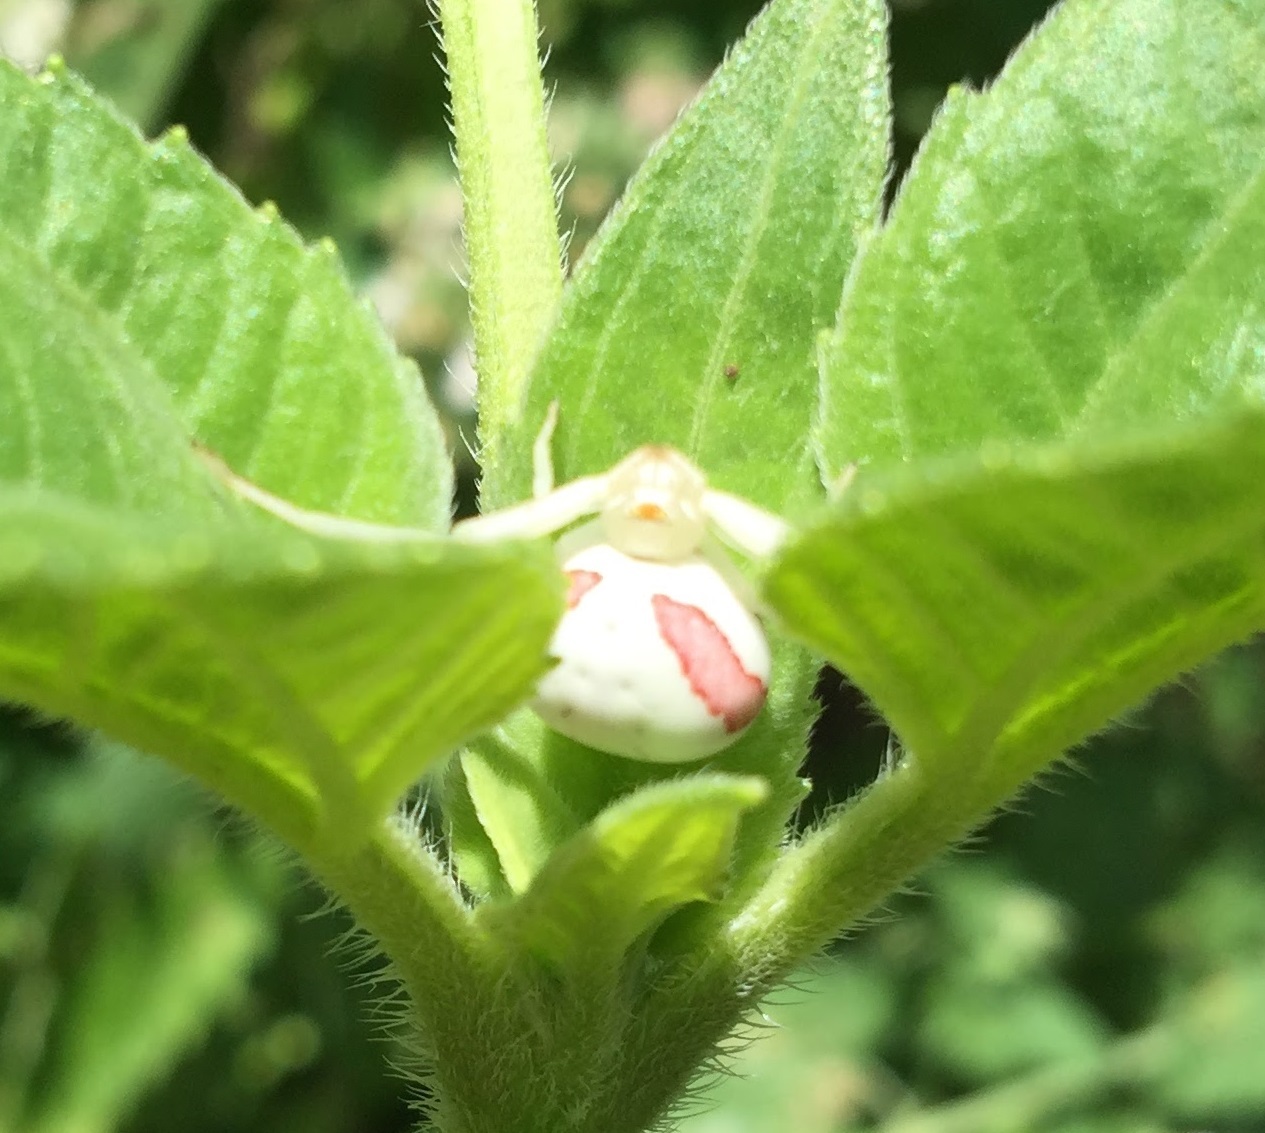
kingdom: Animalia
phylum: Arthropoda
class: Arachnida
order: Araneae
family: Thomisidae
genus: Misumena
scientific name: Misumena vatia
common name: Goldenrod crab spider
